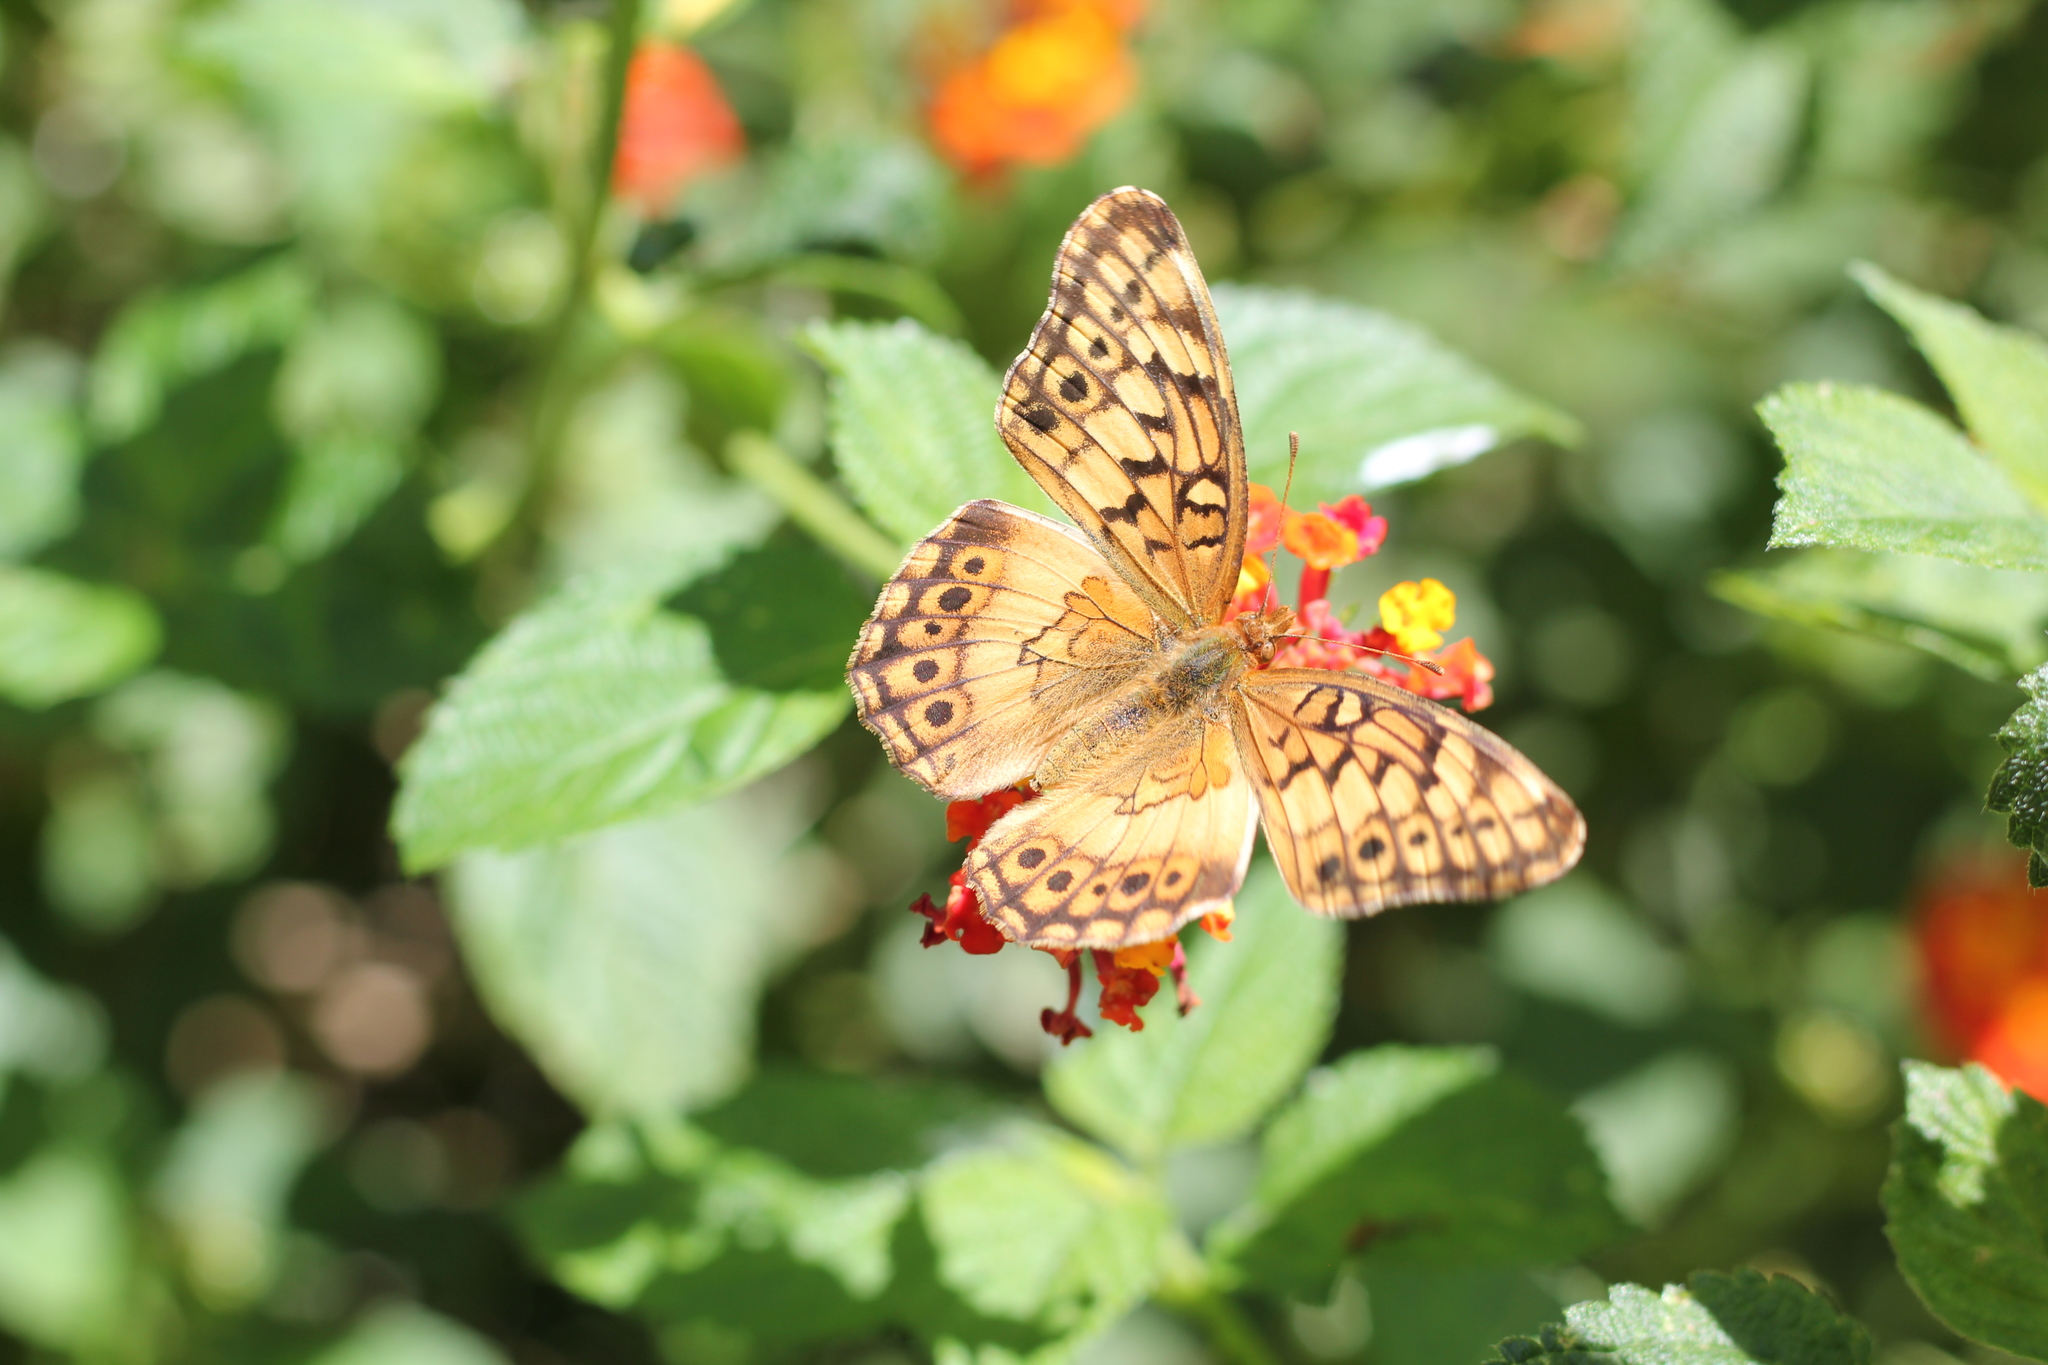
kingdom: Animalia
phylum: Arthropoda
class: Insecta
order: Lepidoptera
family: Nymphalidae
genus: Euptoieta
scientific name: Euptoieta hortensia
